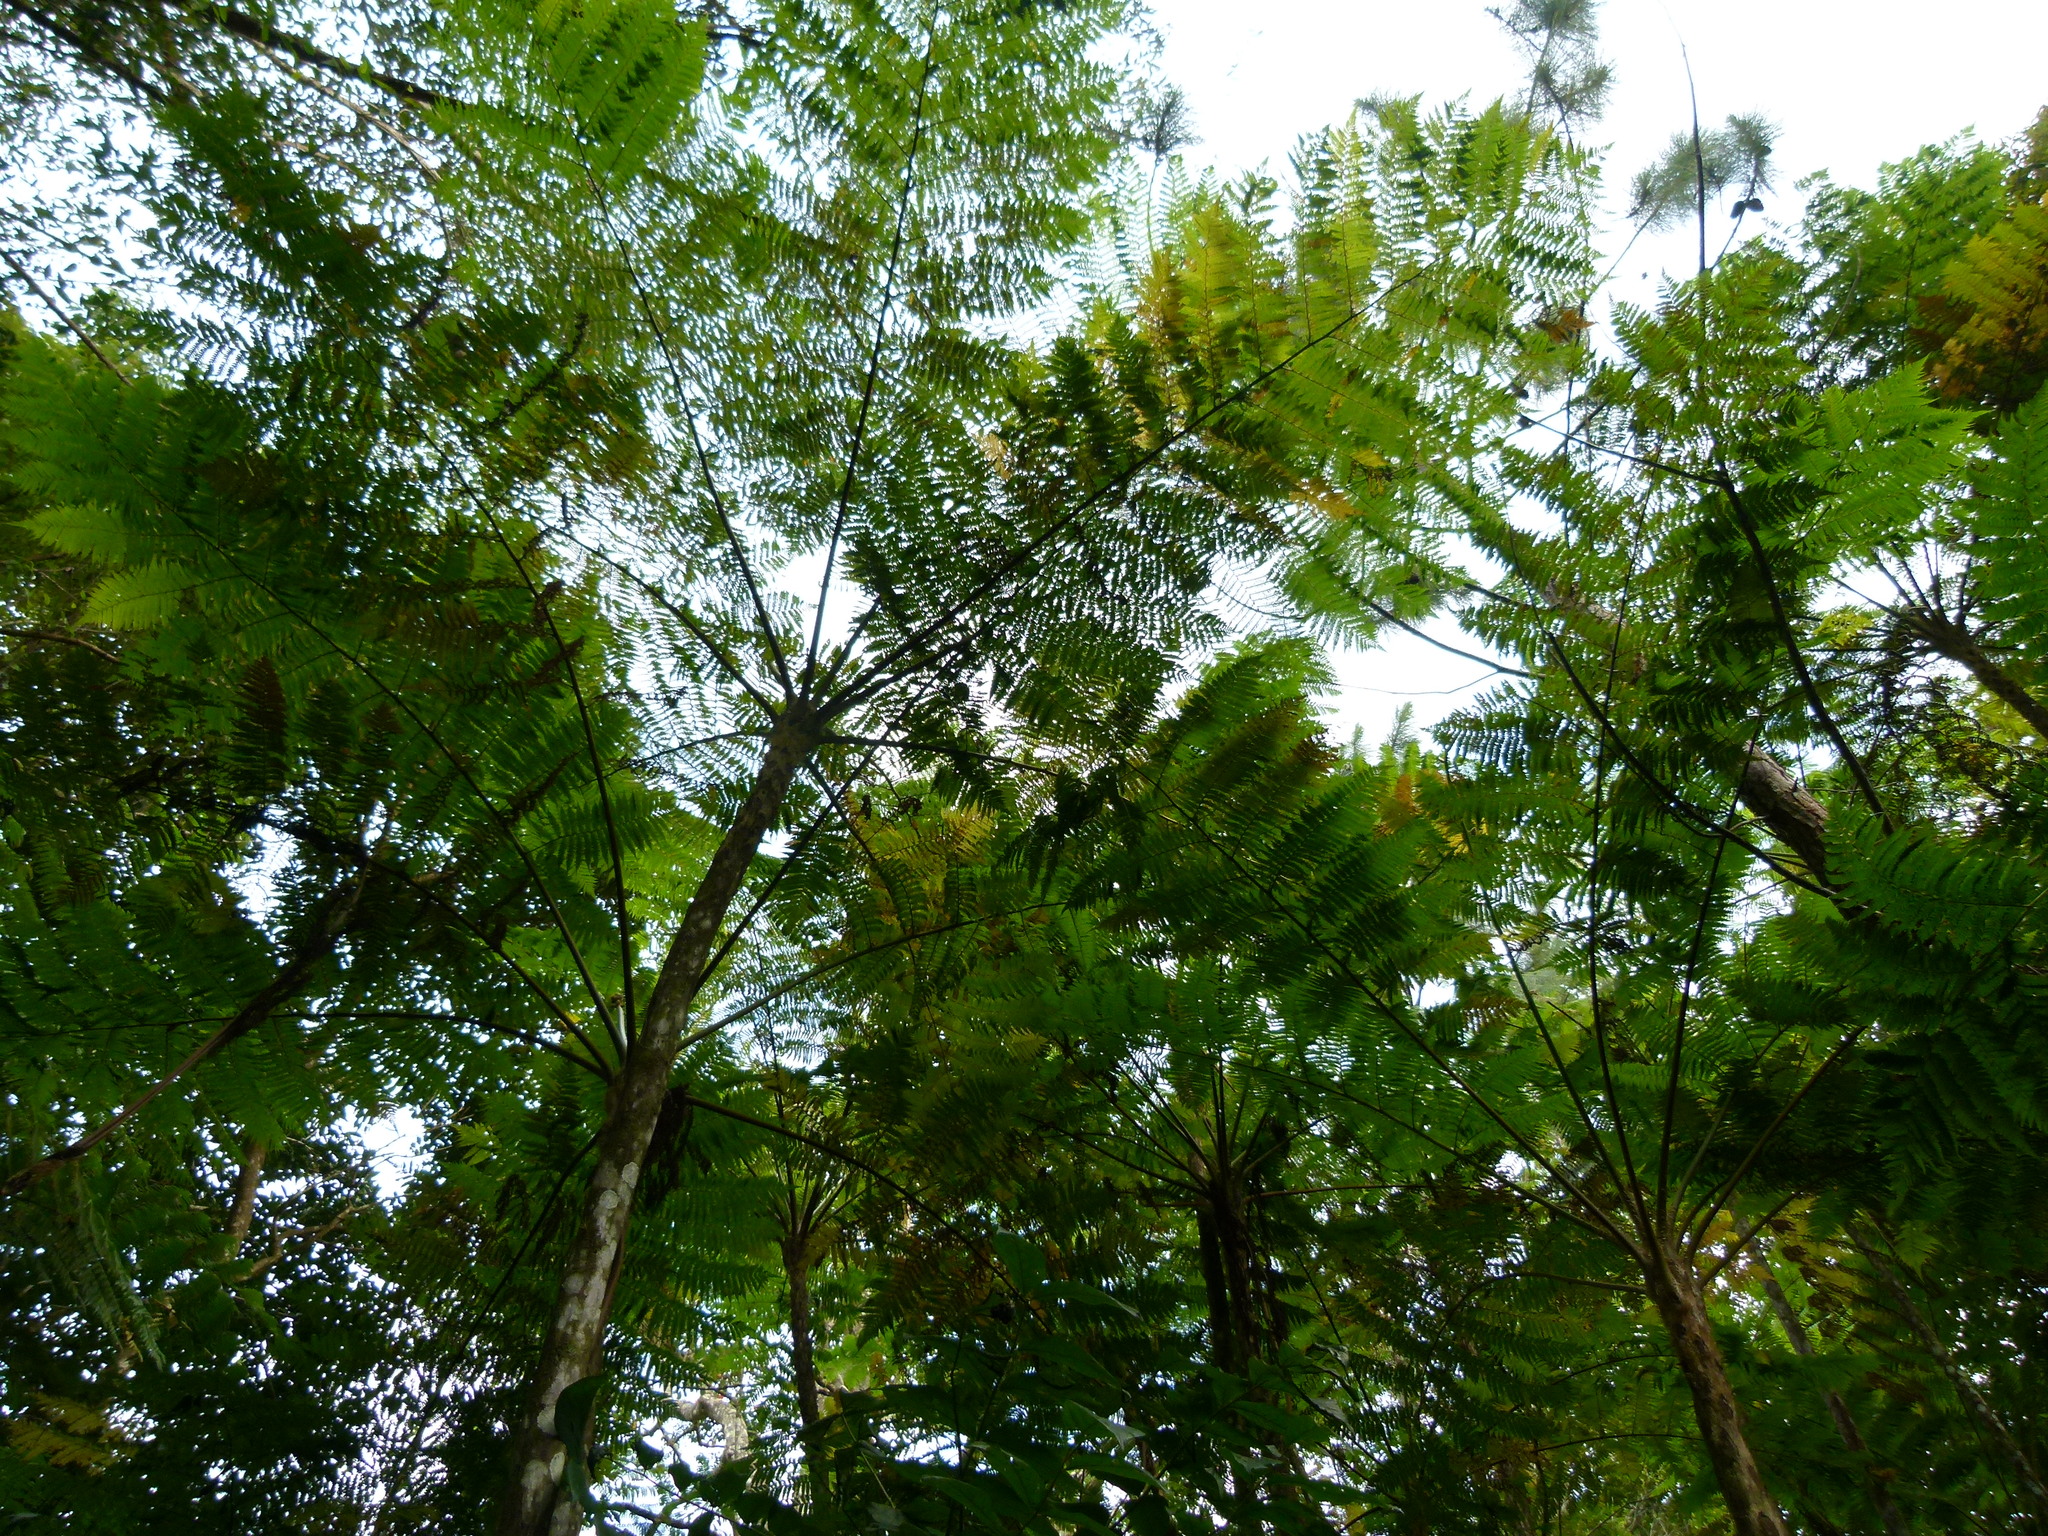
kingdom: Plantae
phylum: Tracheophyta
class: Polypodiopsida
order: Cyatheales
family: Cyatheaceae
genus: Cyathea
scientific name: Cyathea arborea
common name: West indian treefern
